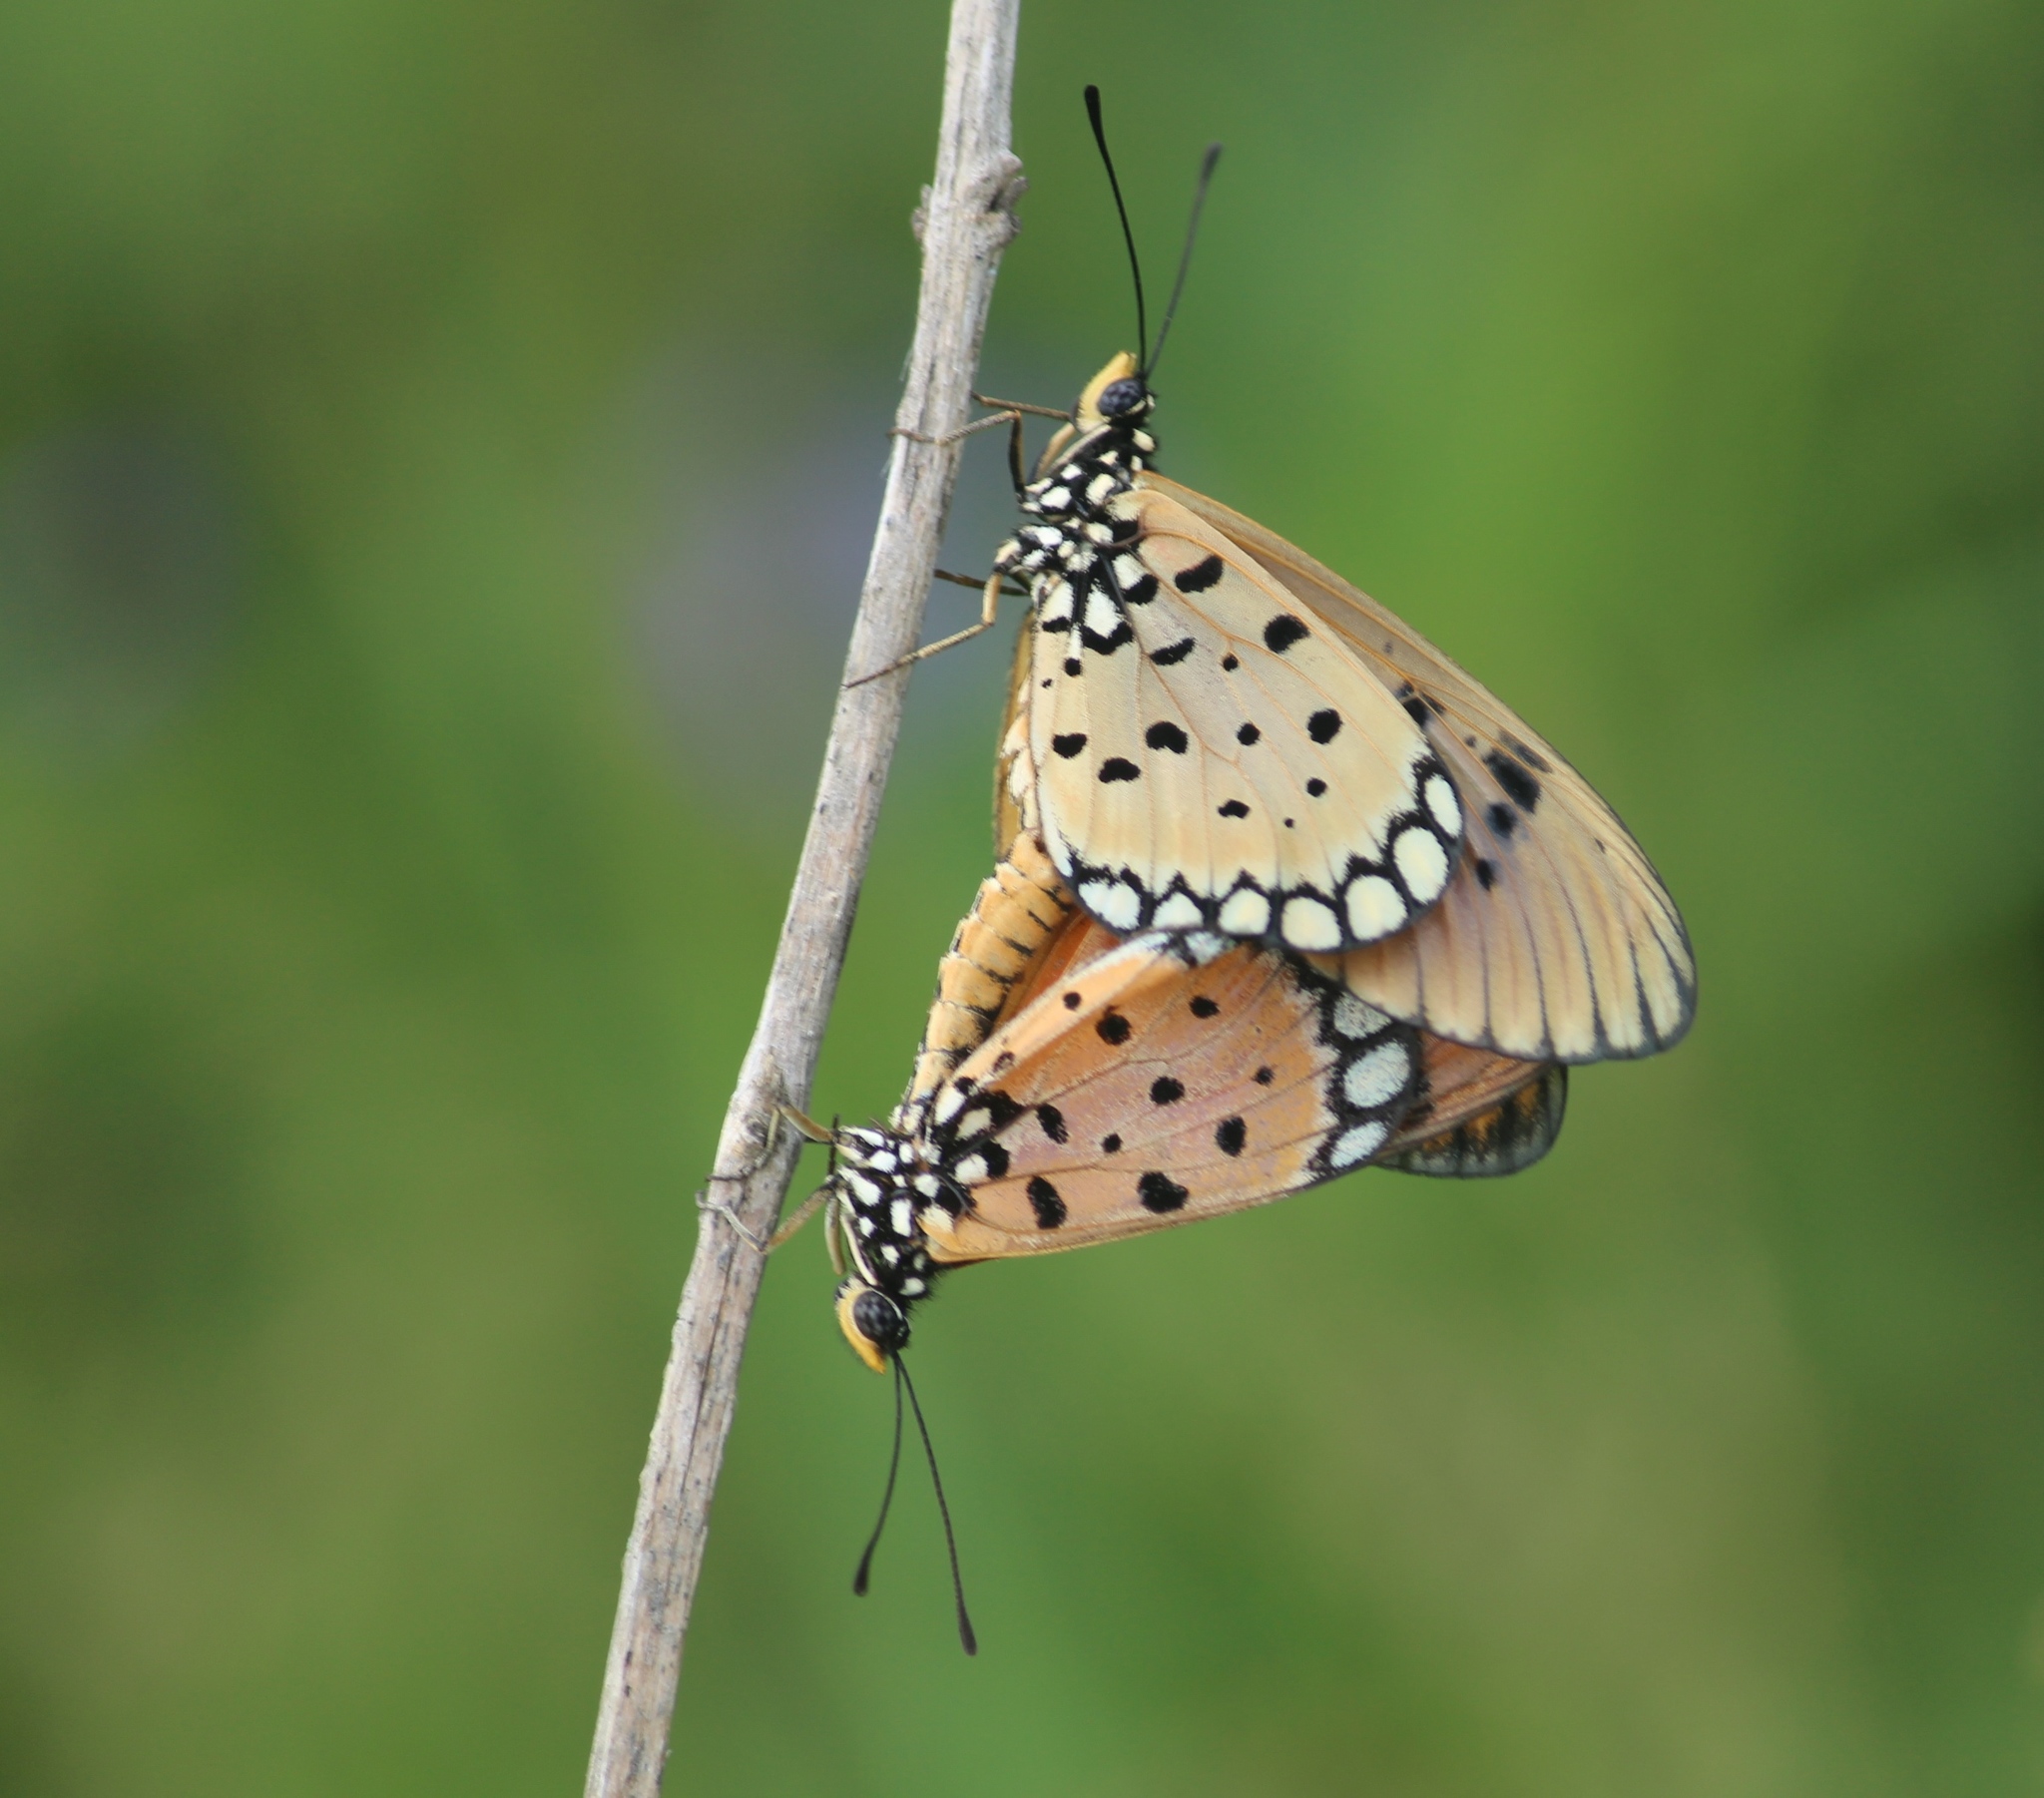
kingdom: Animalia
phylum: Arthropoda
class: Insecta
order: Lepidoptera
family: Nymphalidae
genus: Acraea
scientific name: Acraea terpsicore
